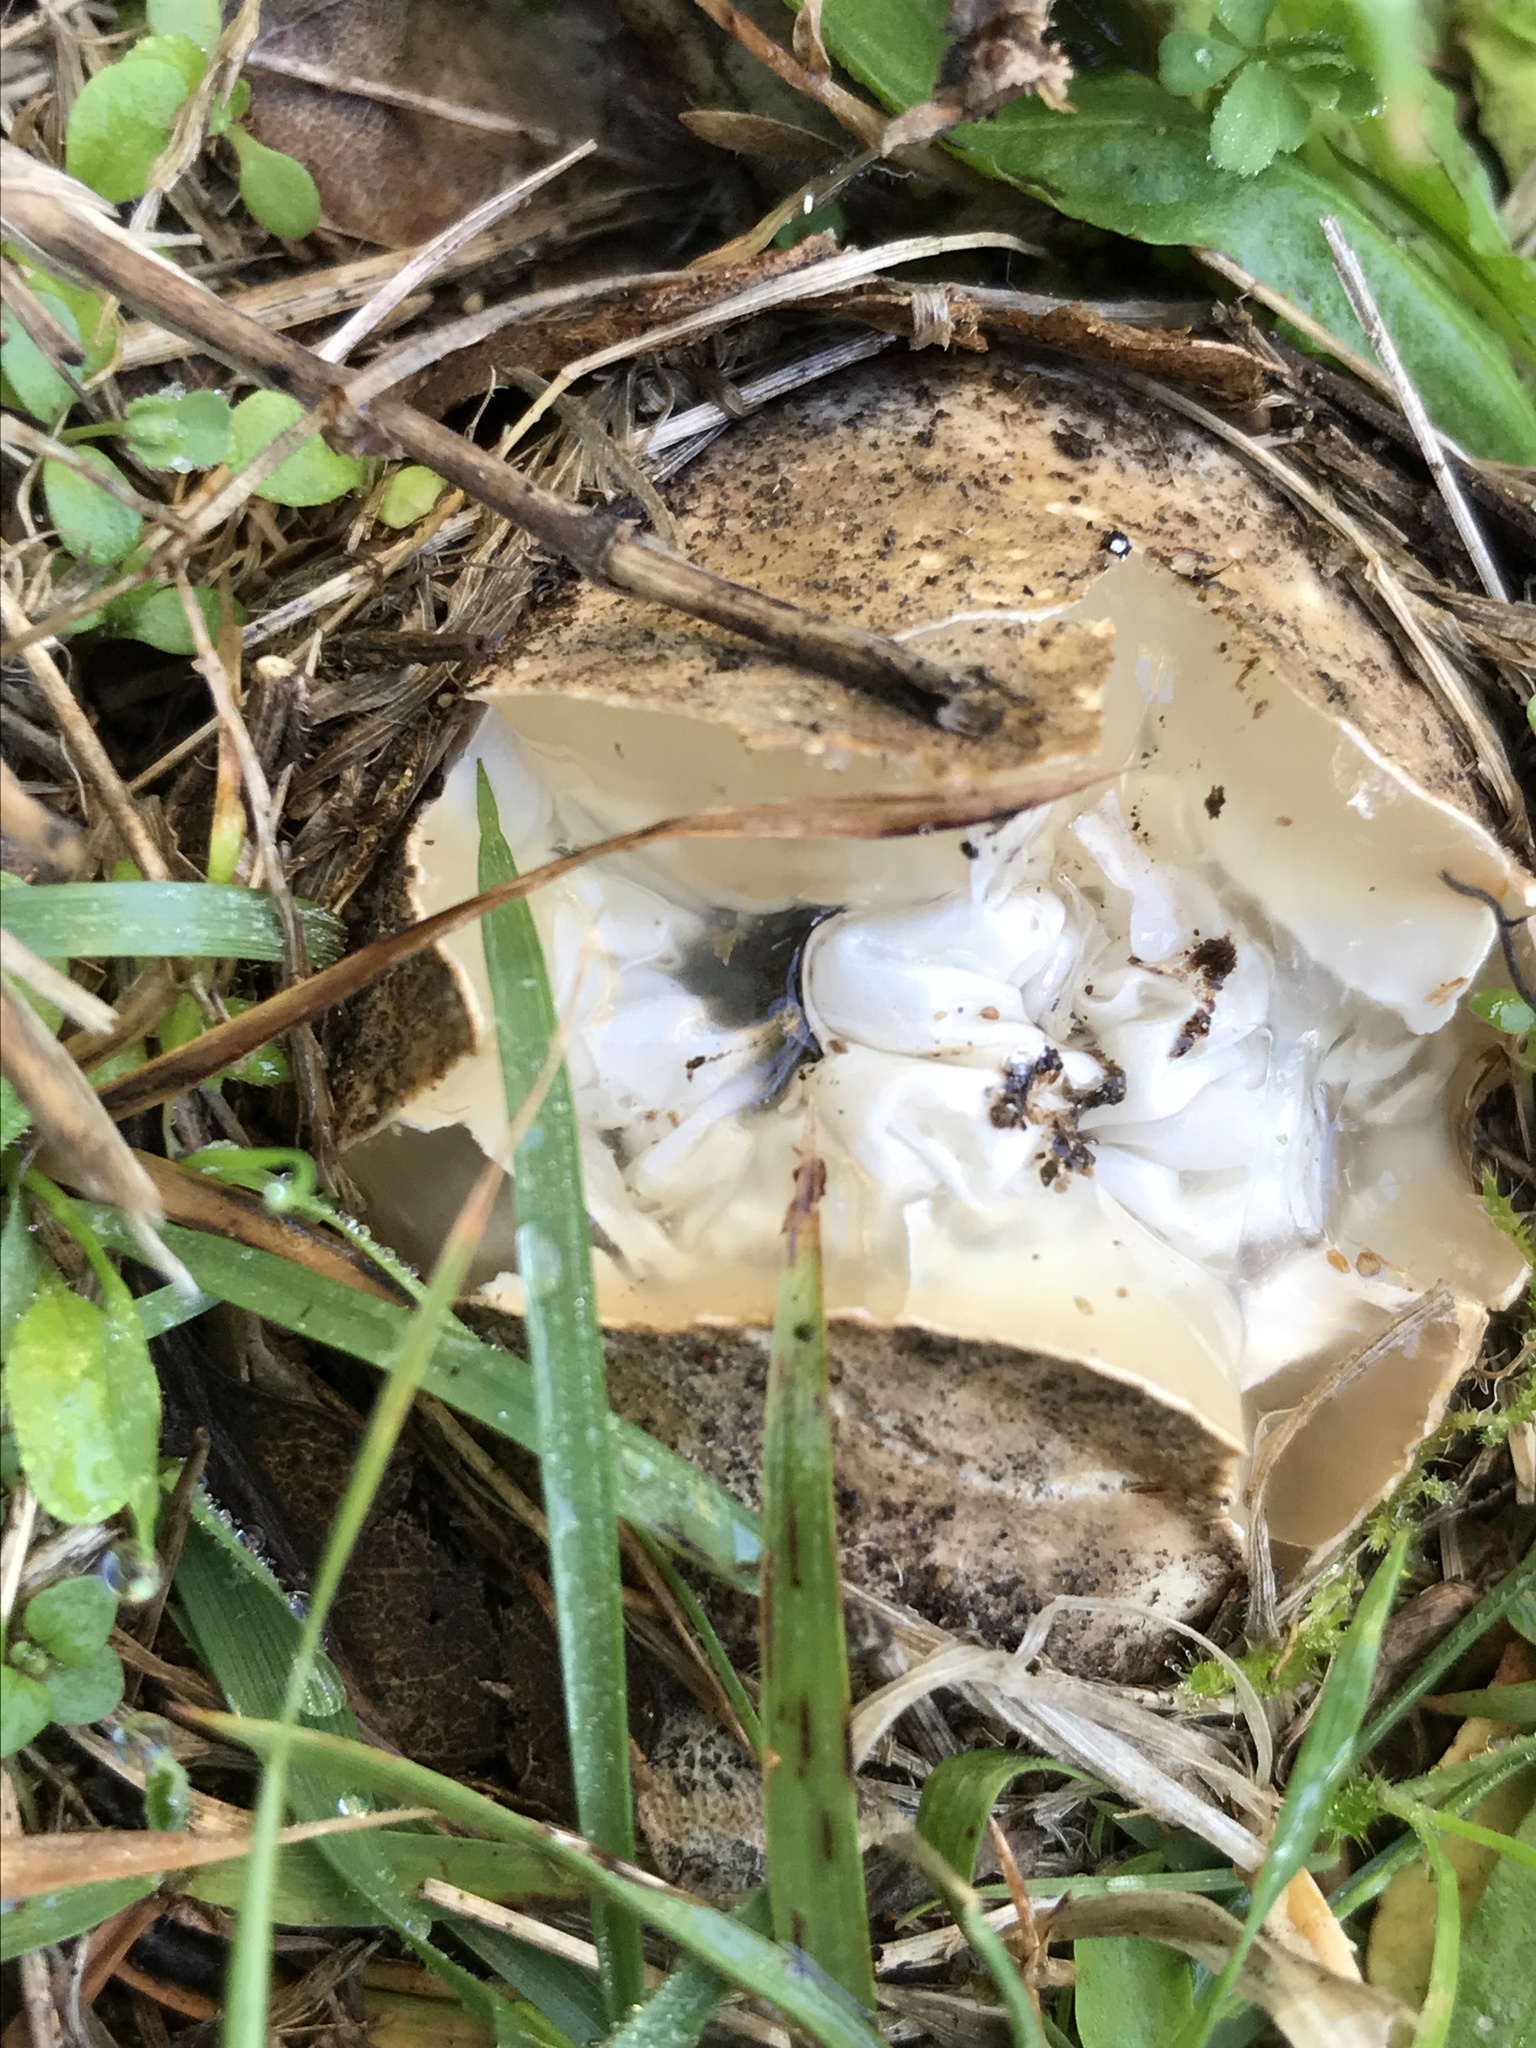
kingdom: Fungi
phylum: Basidiomycota
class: Agaricomycetes
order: Phallales
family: Phallaceae
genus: Ileodictyon
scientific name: Ileodictyon cibarium
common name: Basket fungus
